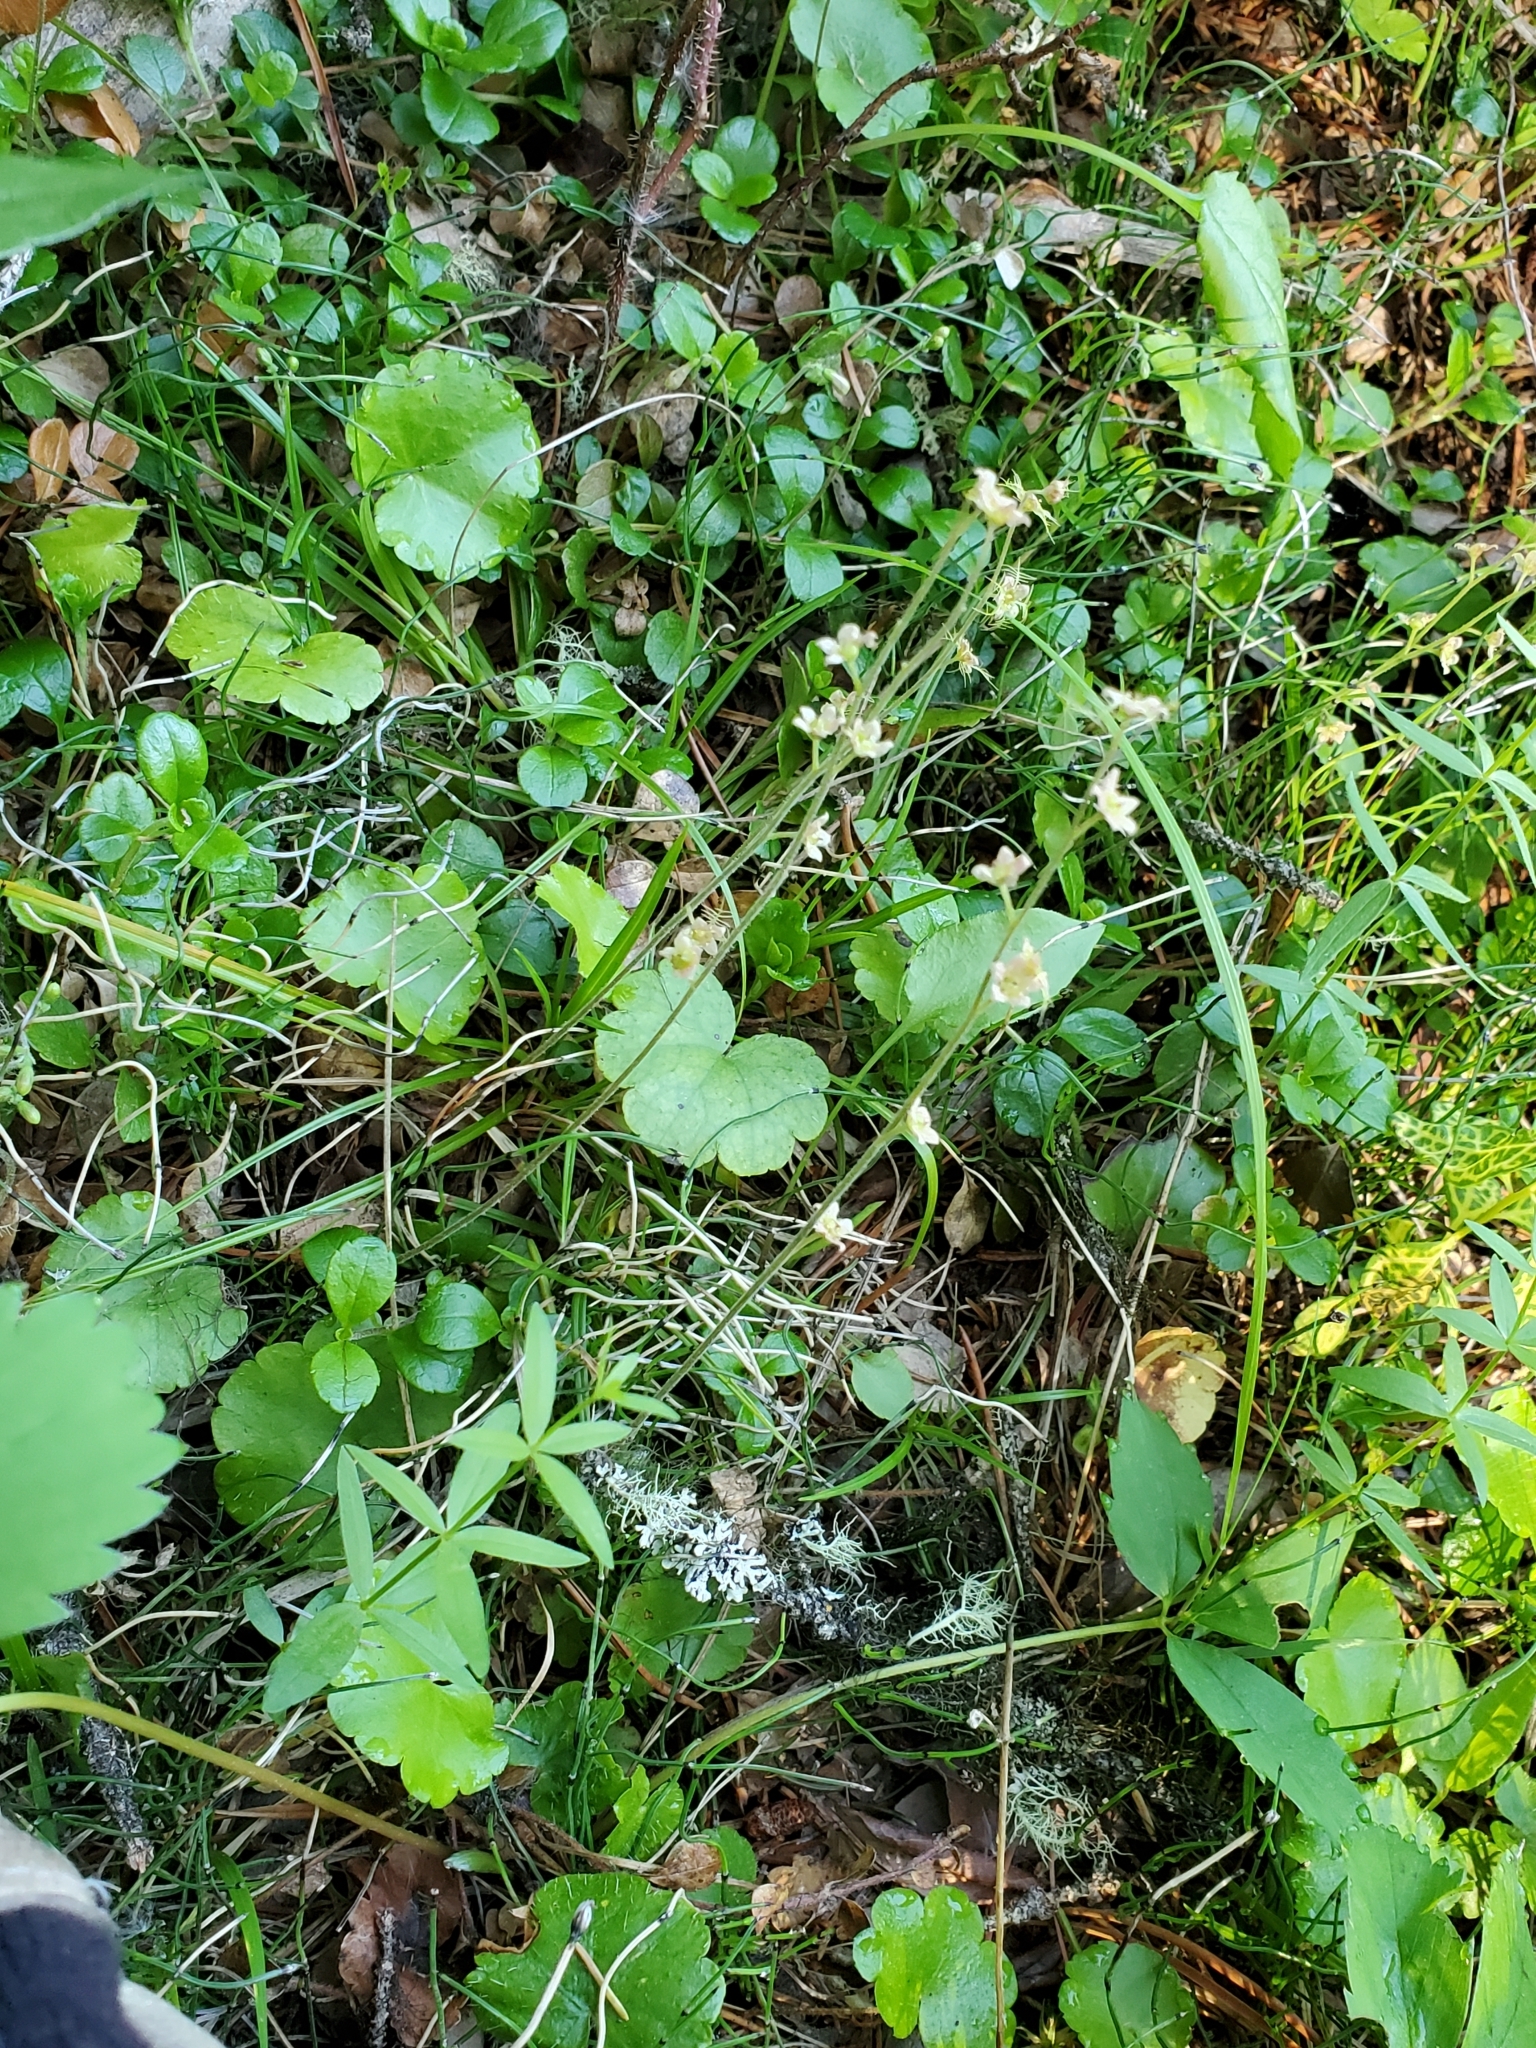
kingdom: Plantae
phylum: Tracheophyta
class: Magnoliopsida
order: Saxifragales
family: Saxifragaceae
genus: Mitella
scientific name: Mitella nuda
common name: Bare-stemmed bishop's-cap
